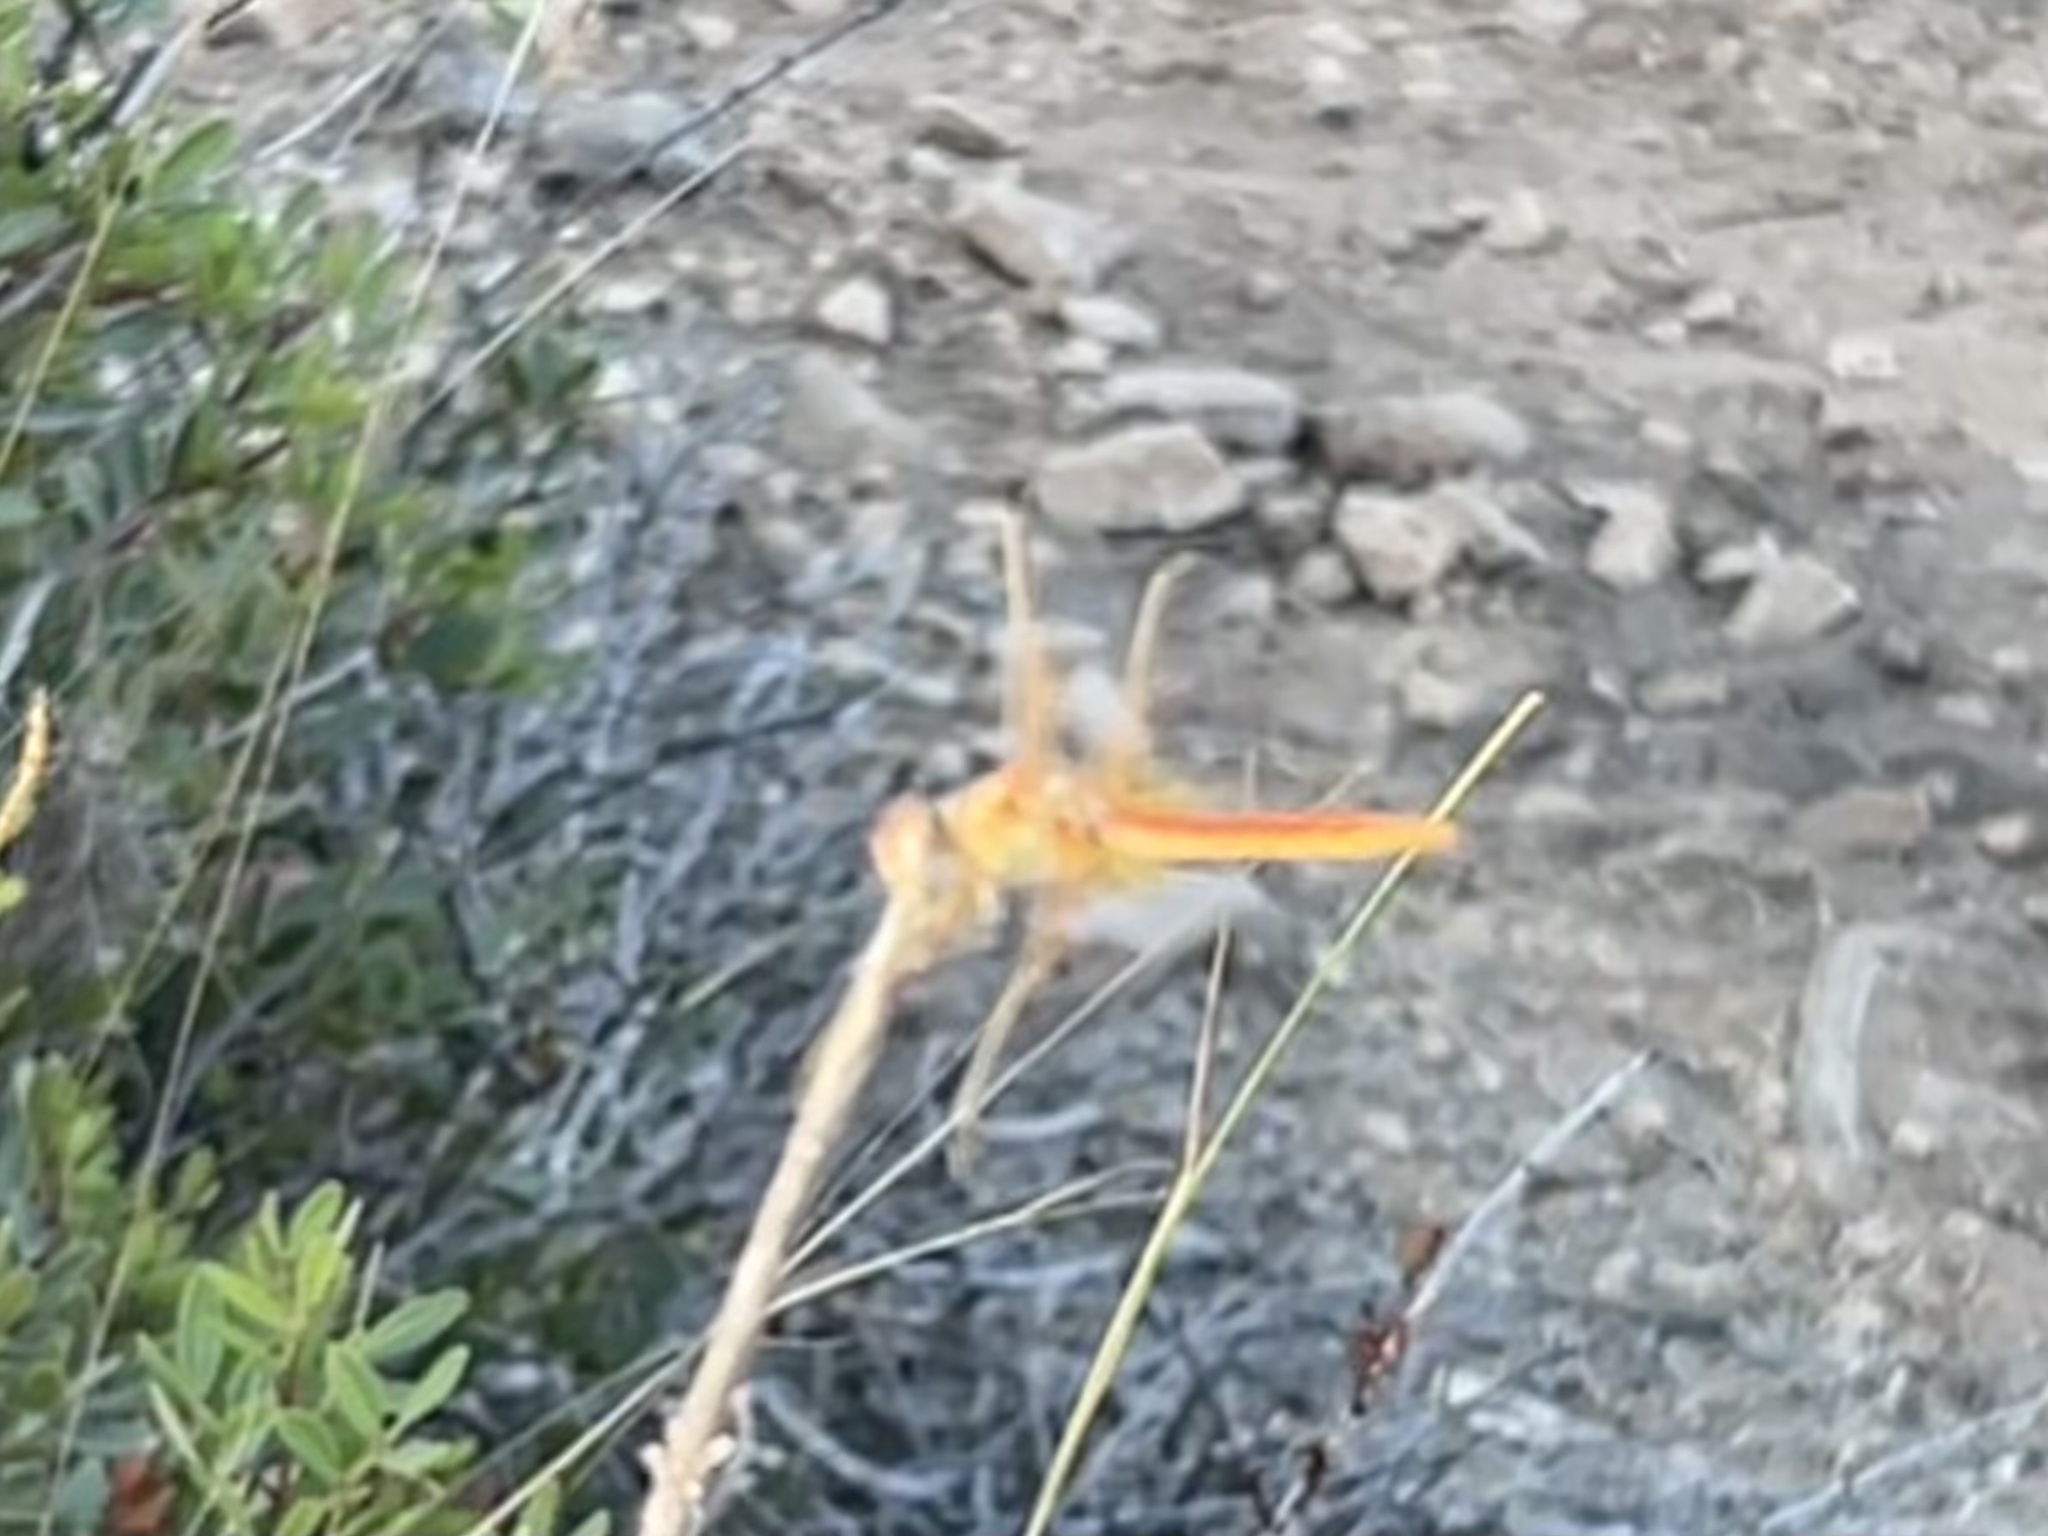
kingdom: Animalia
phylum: Arthropoda
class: Insecta
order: Odonata
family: Libellulidae
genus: Sympetrum
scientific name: Sympetrum fonscolombii
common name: Red-veined darter
